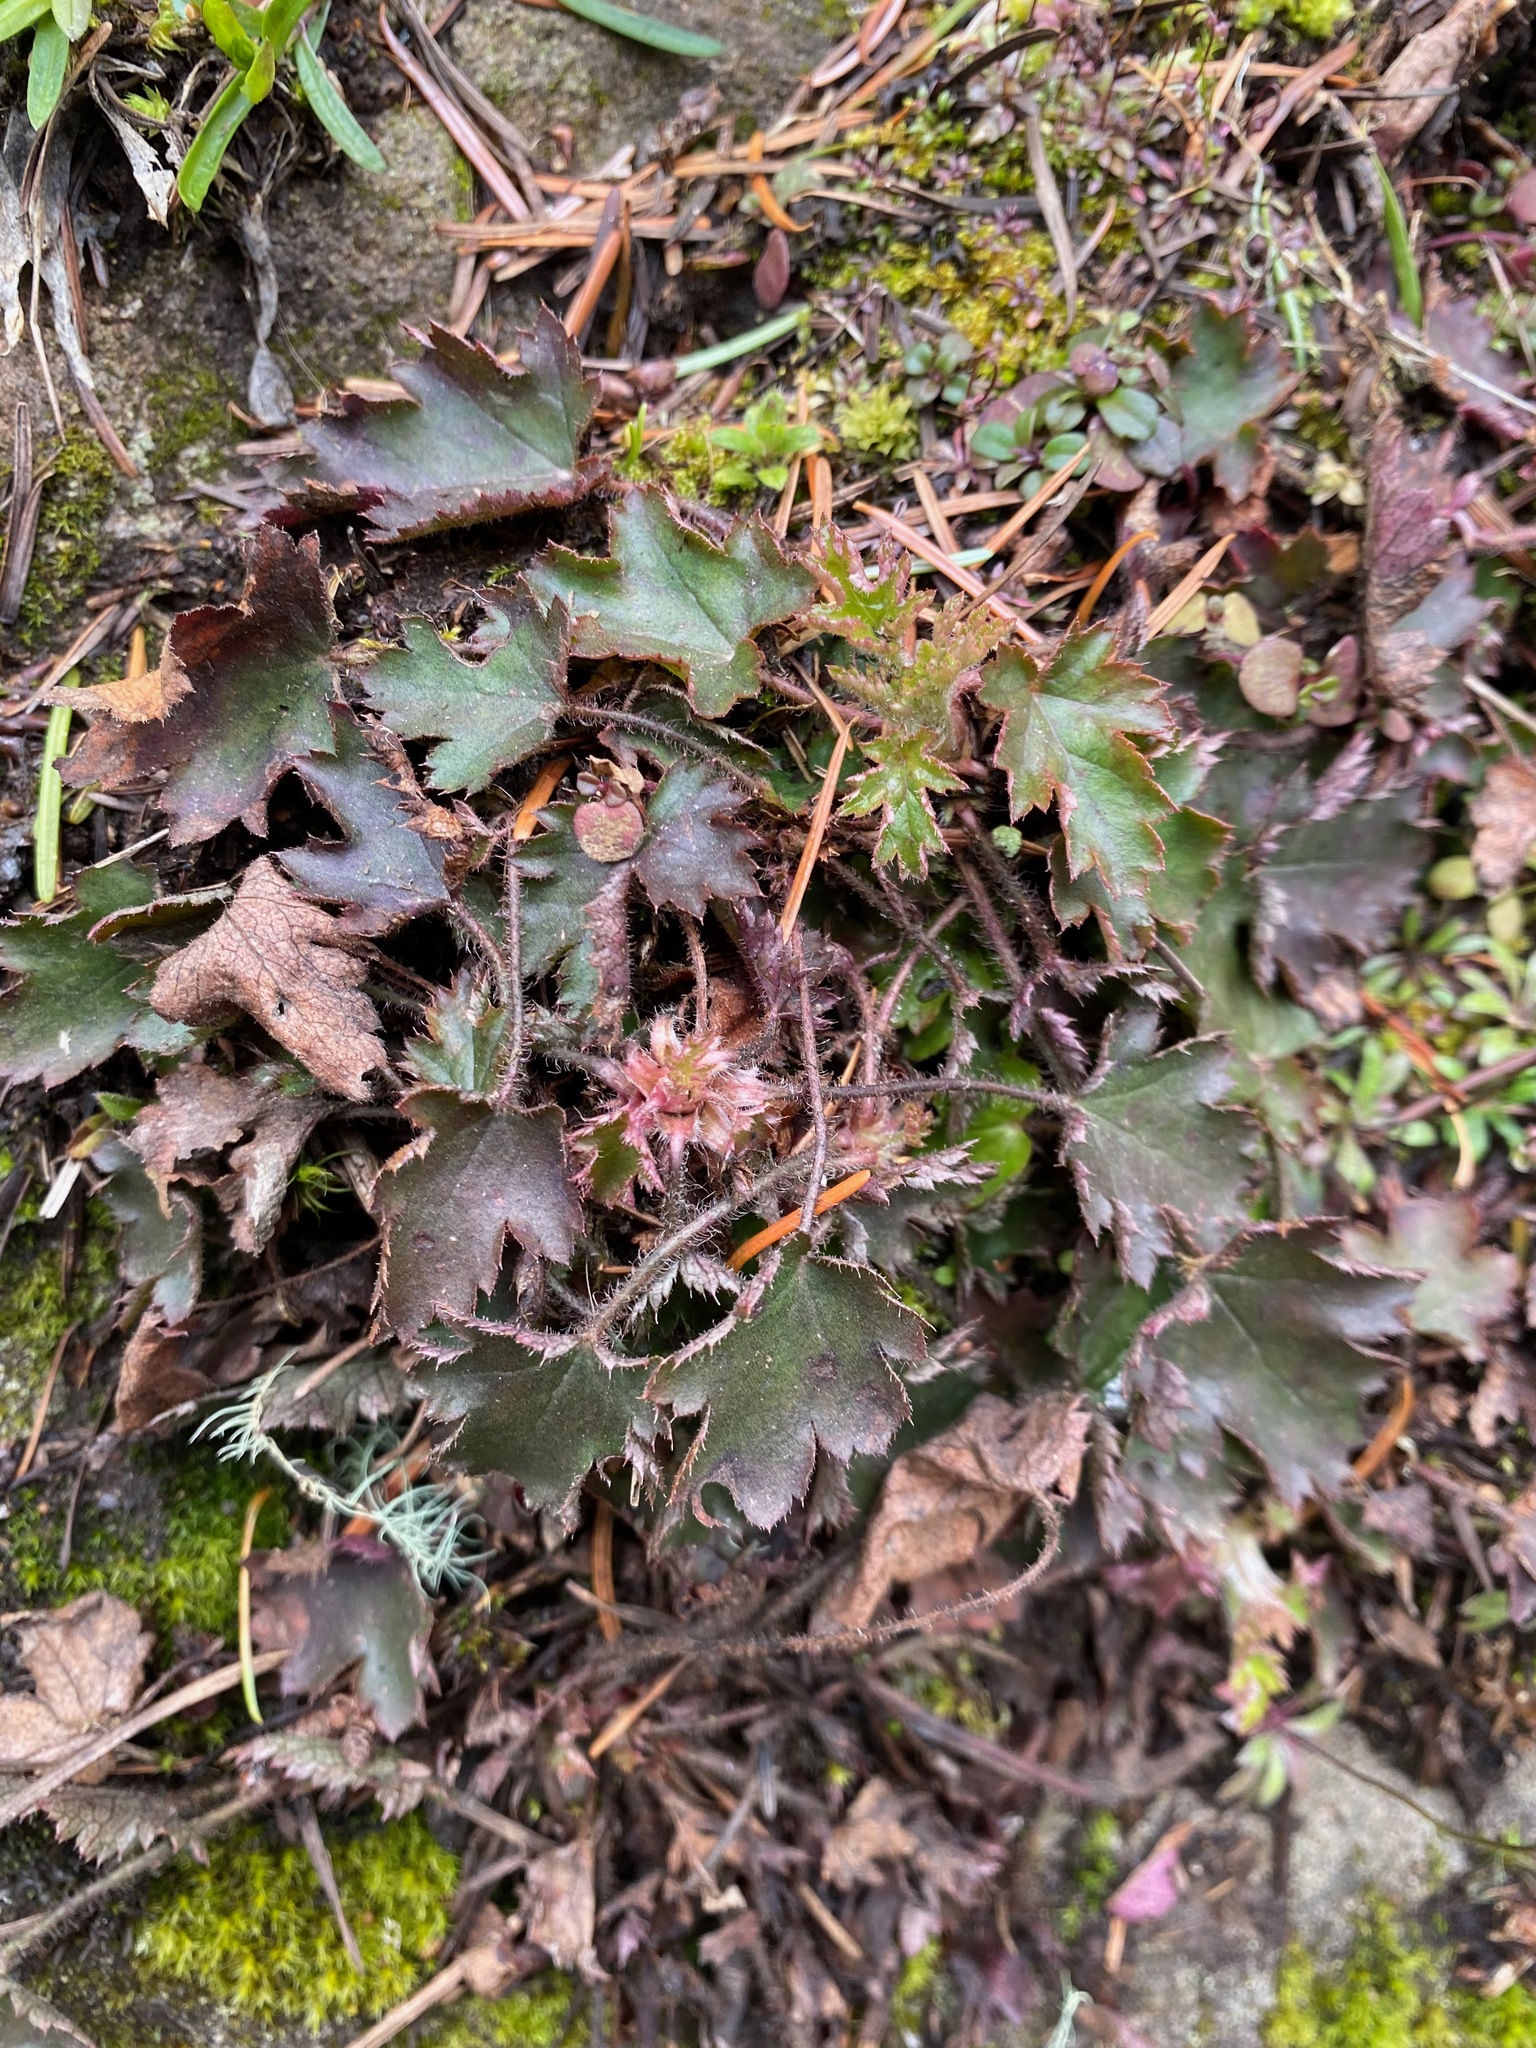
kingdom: Plantae
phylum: Tracheophyta
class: Magnoliopsida
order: Saxifragales
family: Saxifragaceae
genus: Heuchera
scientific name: Heuchera micrantha
